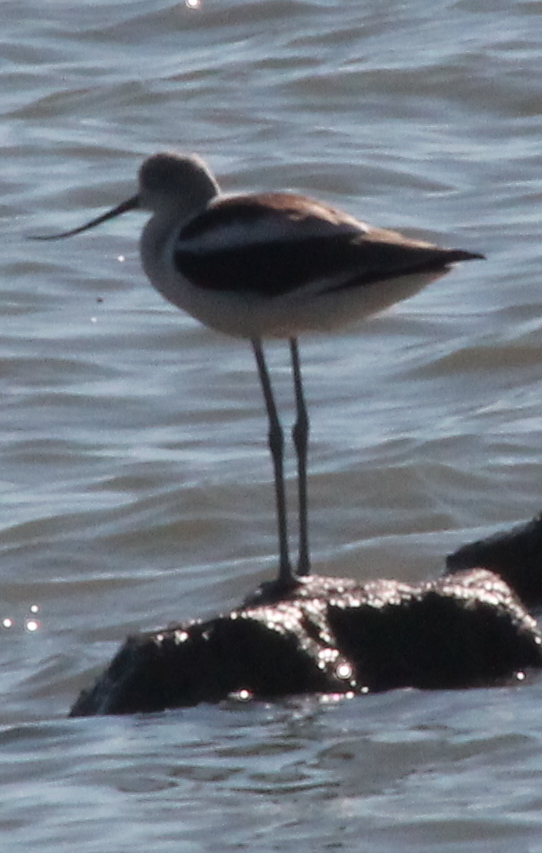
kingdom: Animalia
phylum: Chordata
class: Aves
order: Charadriiformes
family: Recurvirostridae
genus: Recurvirostra
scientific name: Recurvirostra americana
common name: American avocet
